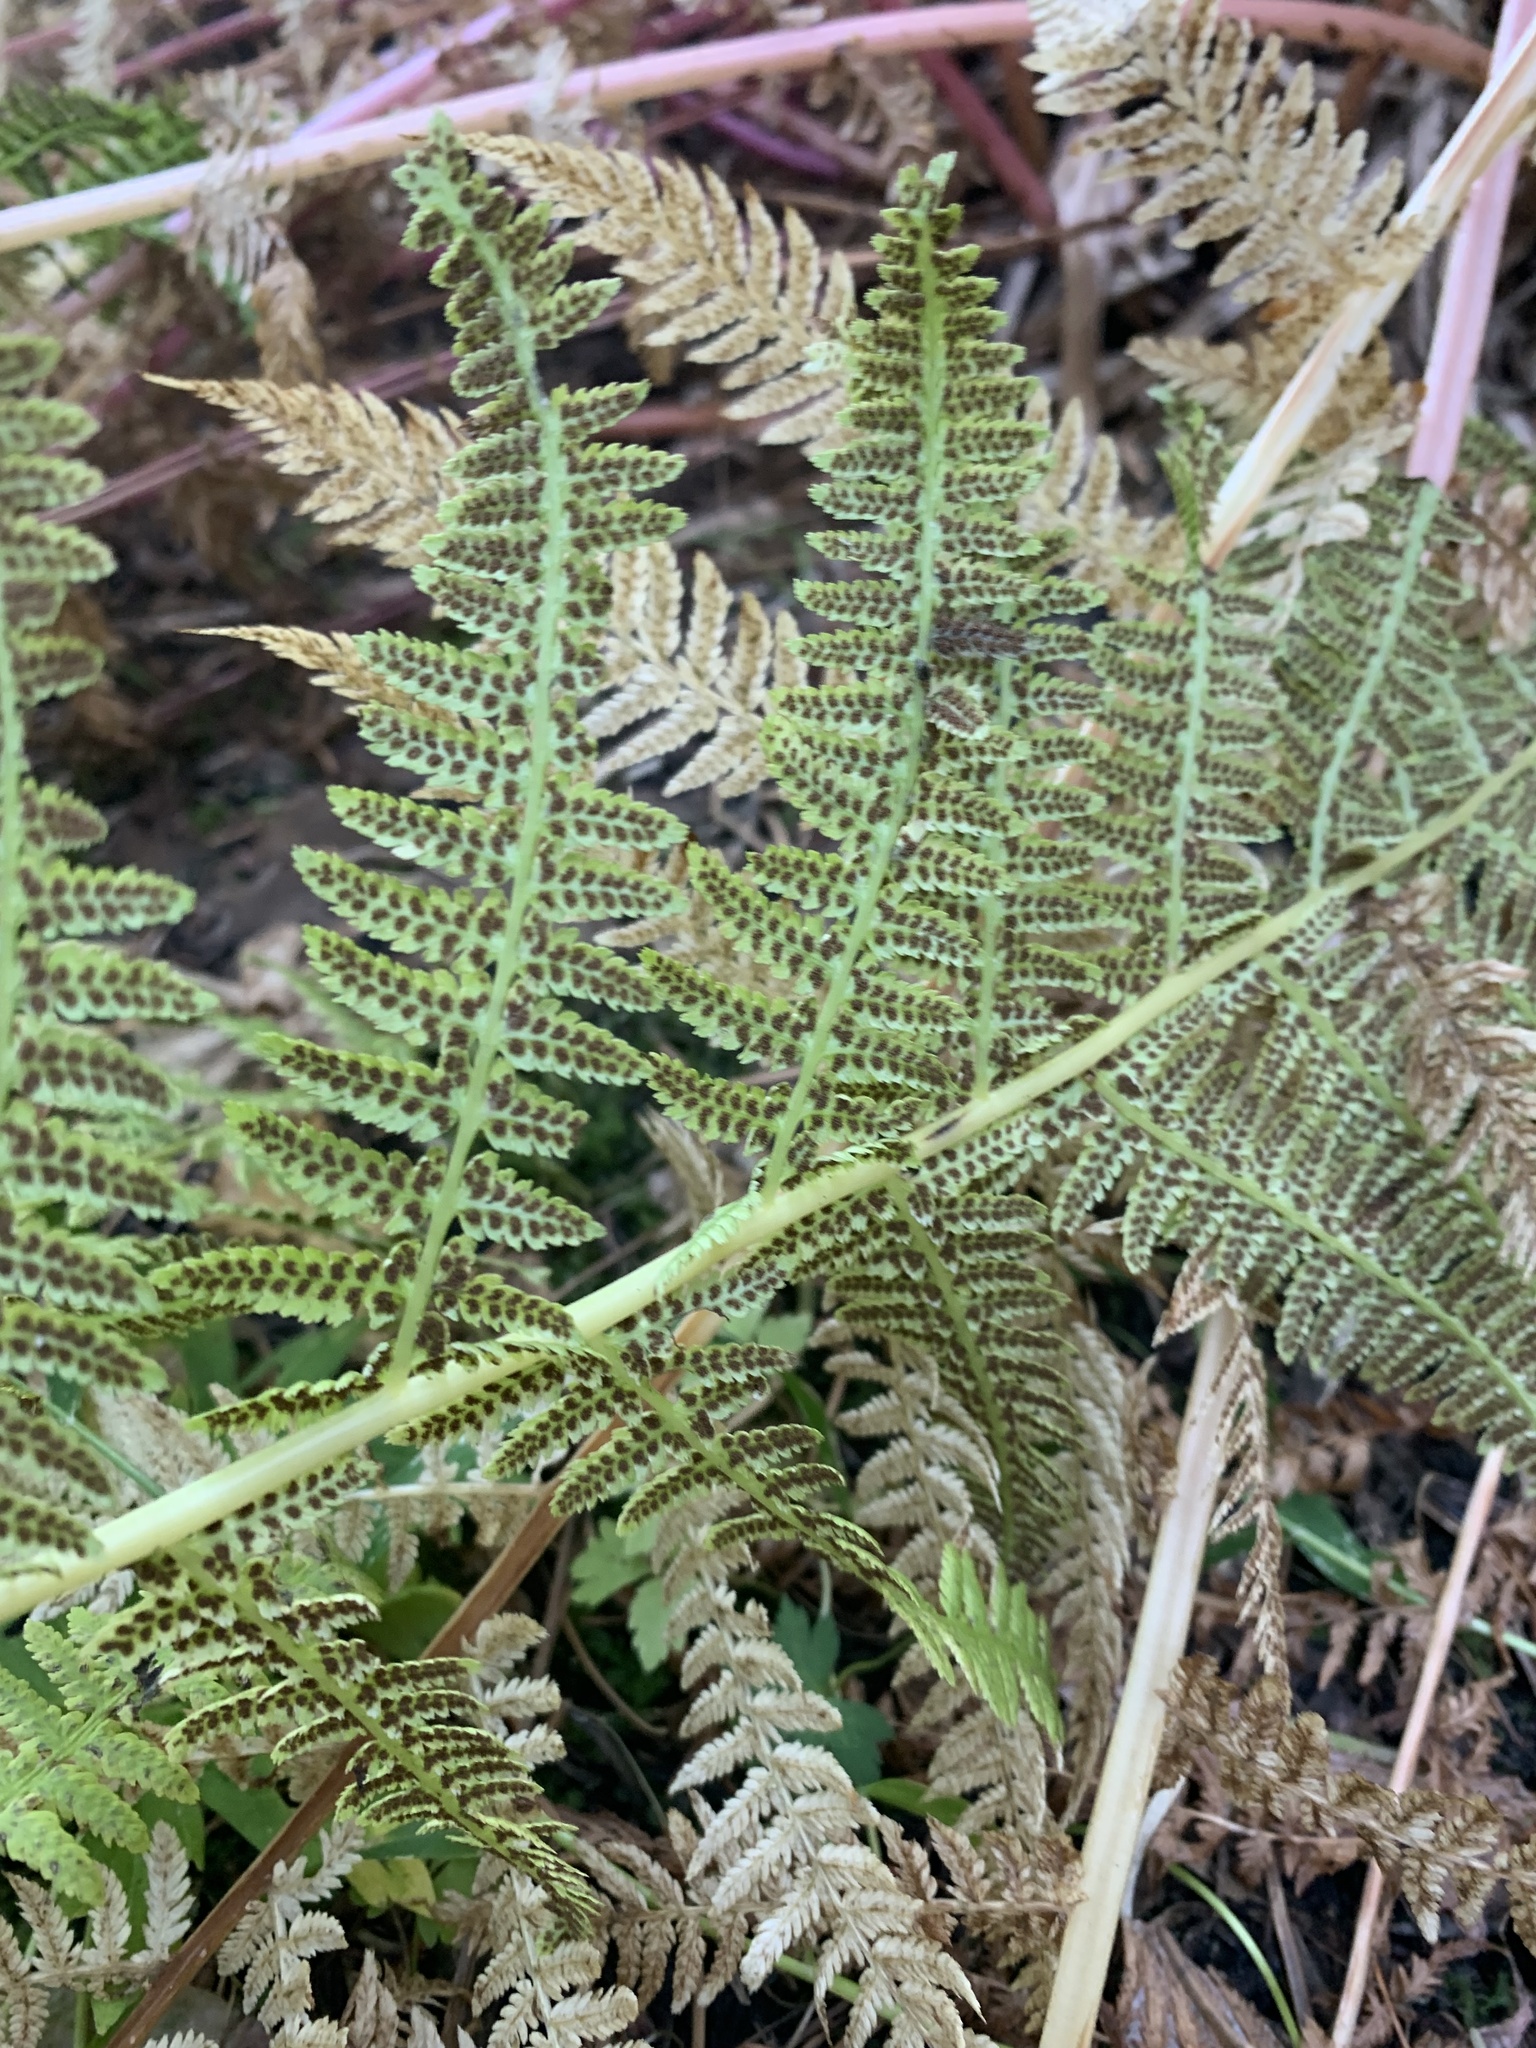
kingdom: Plantae
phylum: Tracheophyta
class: Polypodiopsida
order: Polypodiales
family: Athyriaceae
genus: Athyrium
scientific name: Athyrium filix-femina
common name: Lady fern
